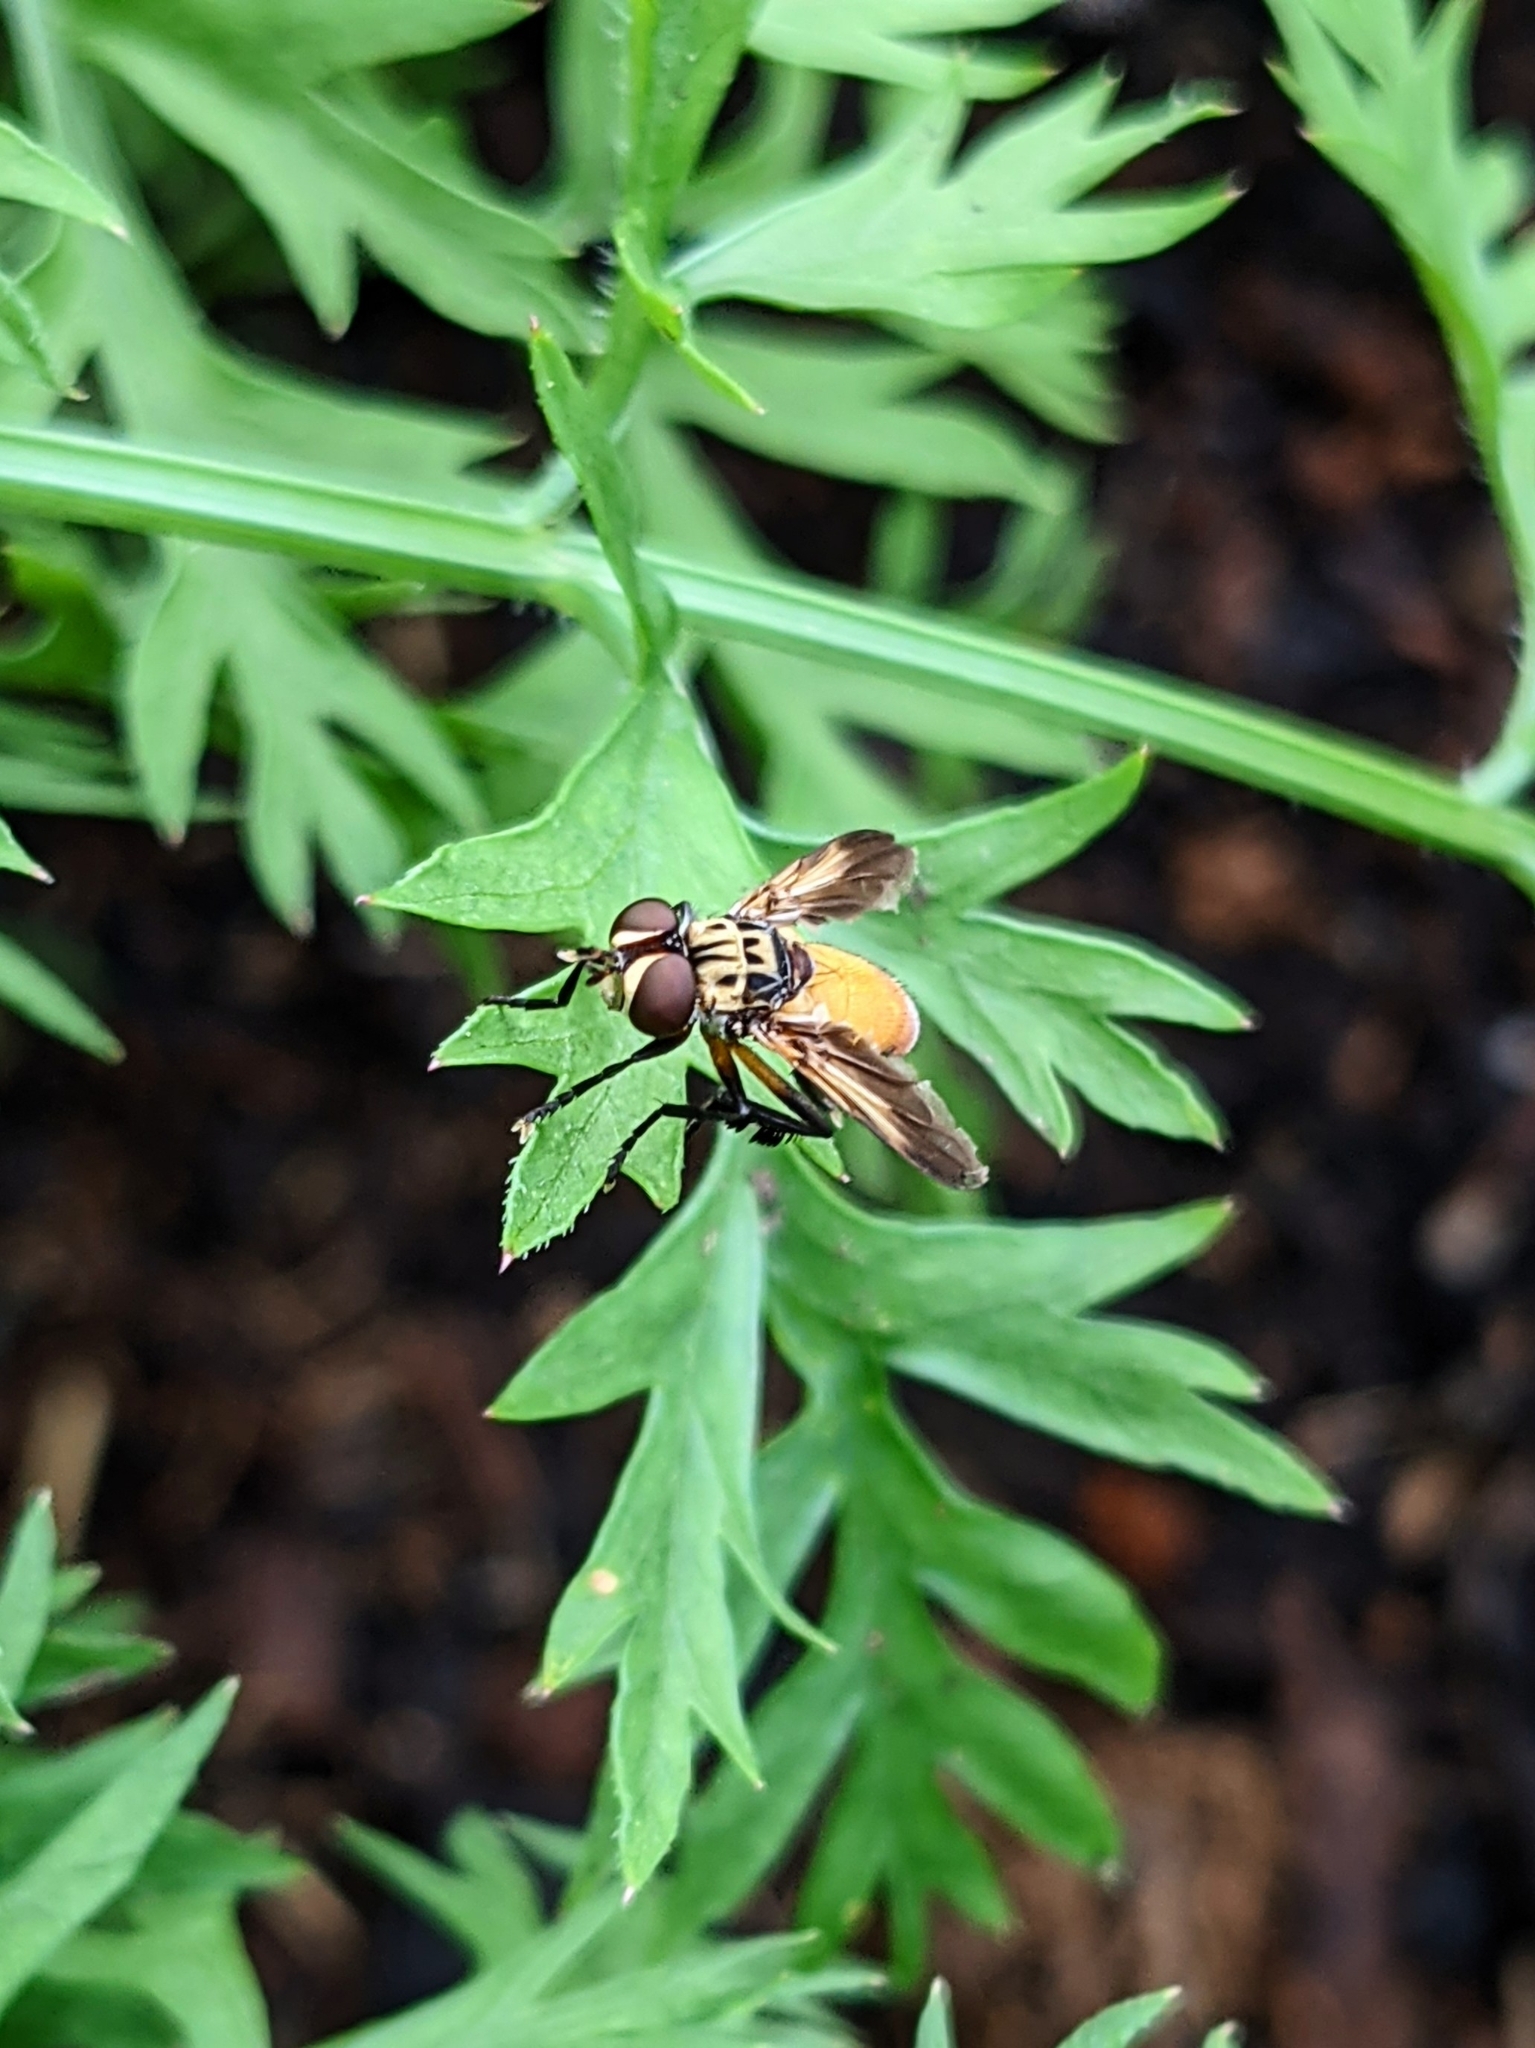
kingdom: Animalia
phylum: Arthropoda
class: Insecta
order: Diptera
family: Tachinidae
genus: Trichopoda
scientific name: Trichopoda pennipes
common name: Tachinid fly
